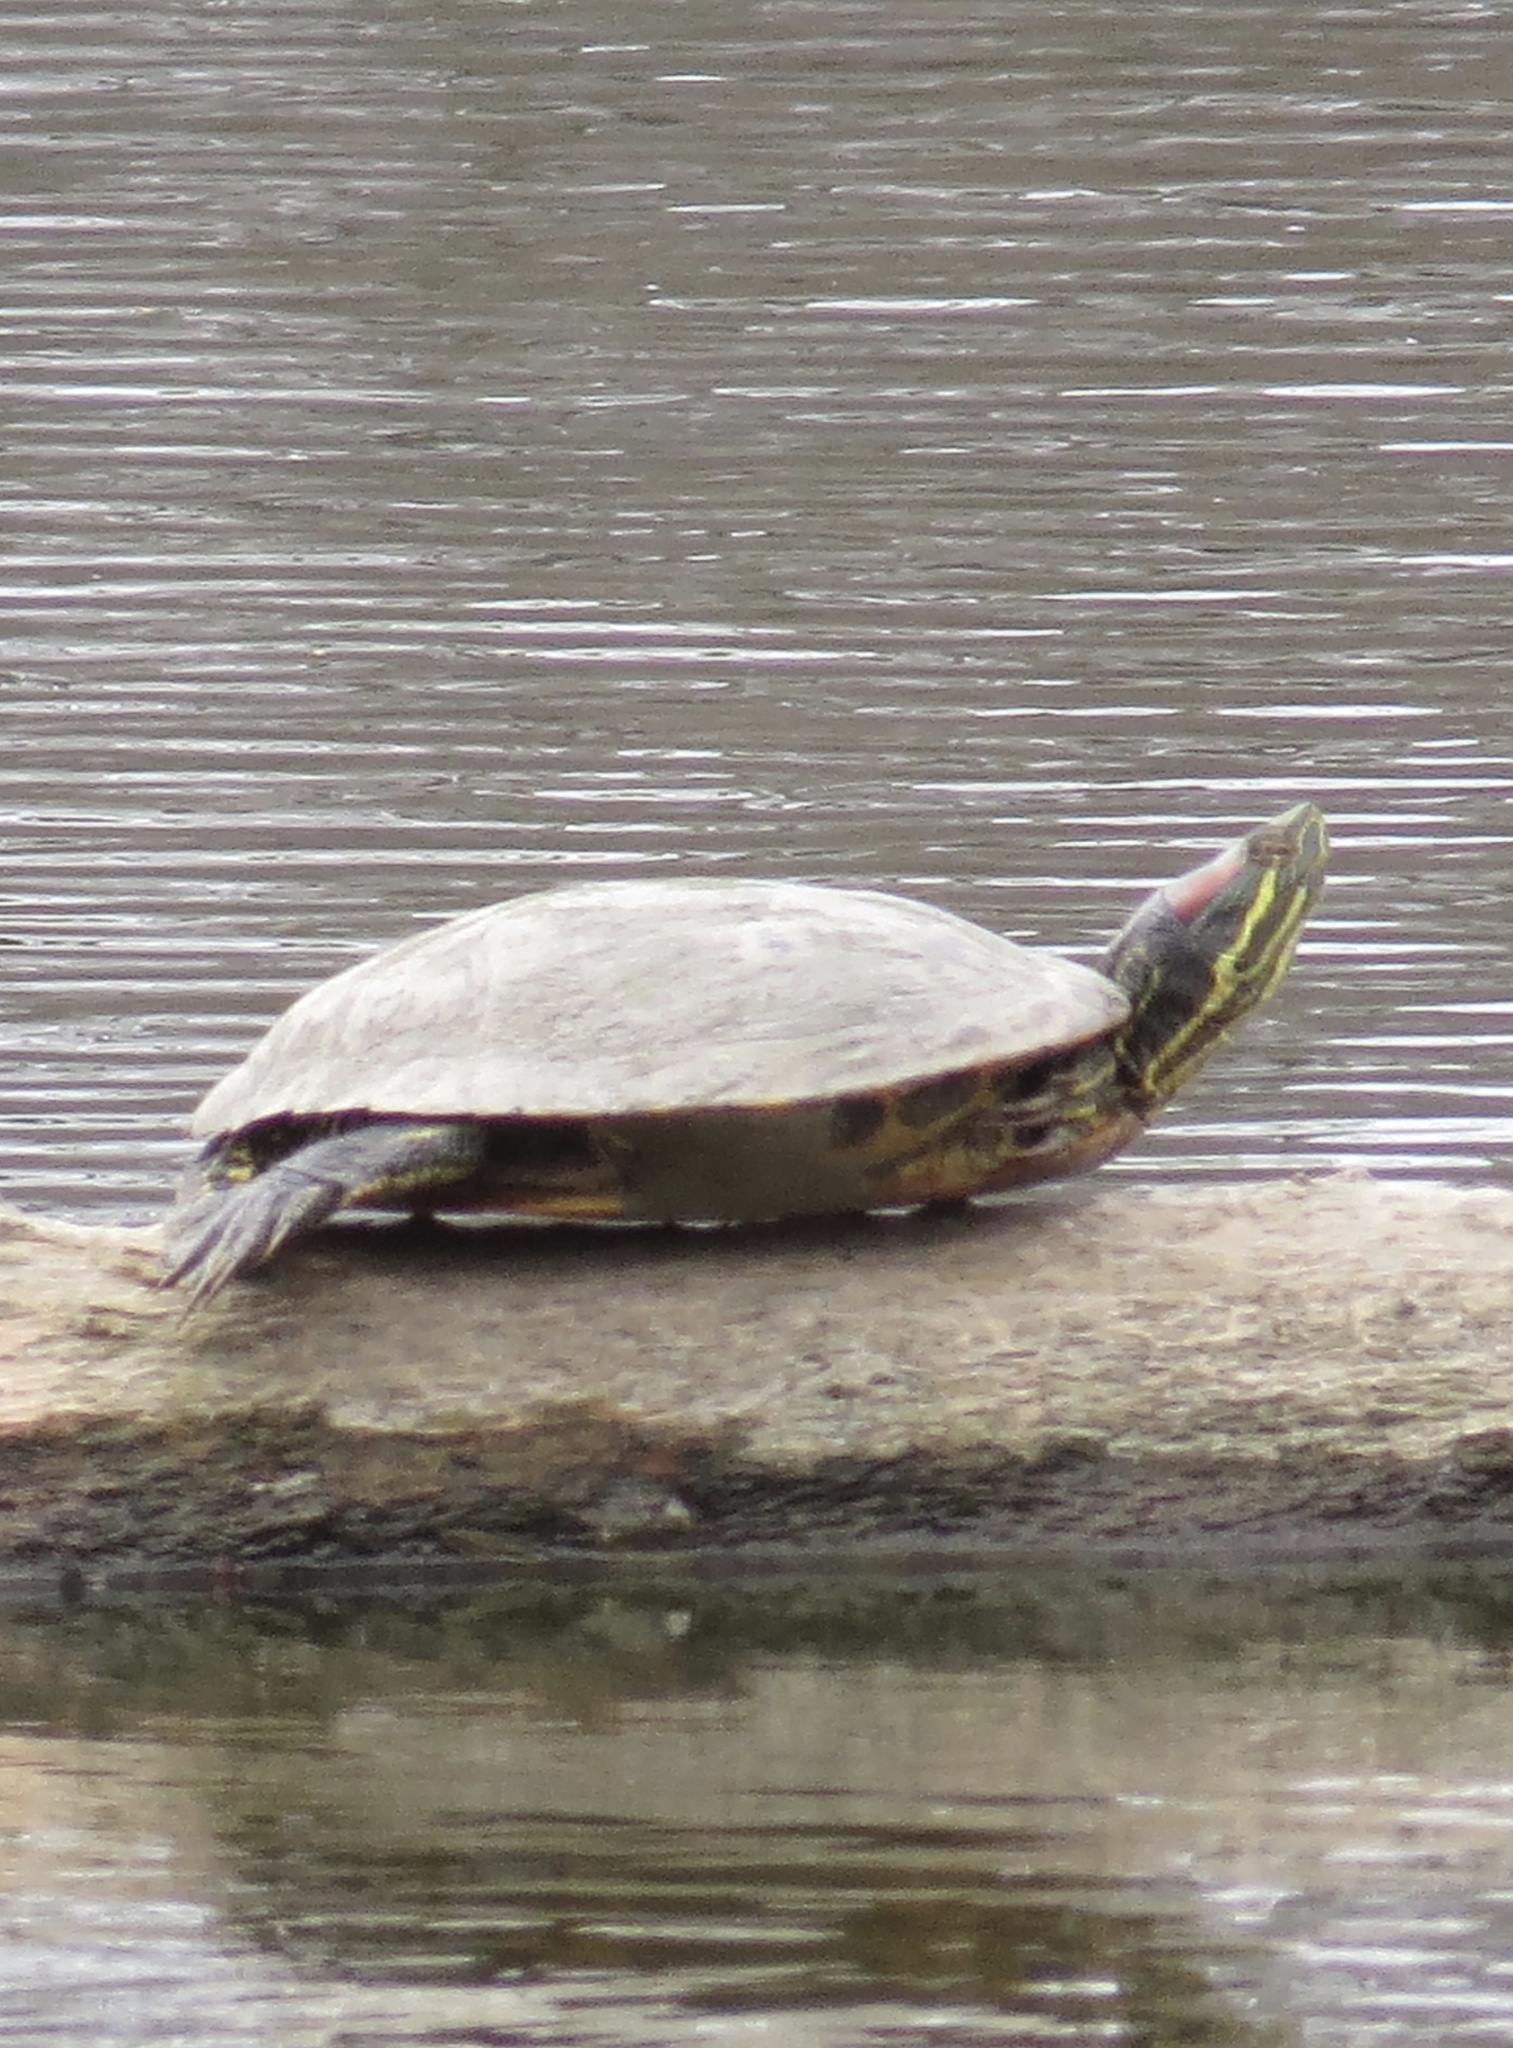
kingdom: Animalia
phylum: Chordata
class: Testudines
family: Emydidae
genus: Trachemys
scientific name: Trachemys scripta
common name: Slider
